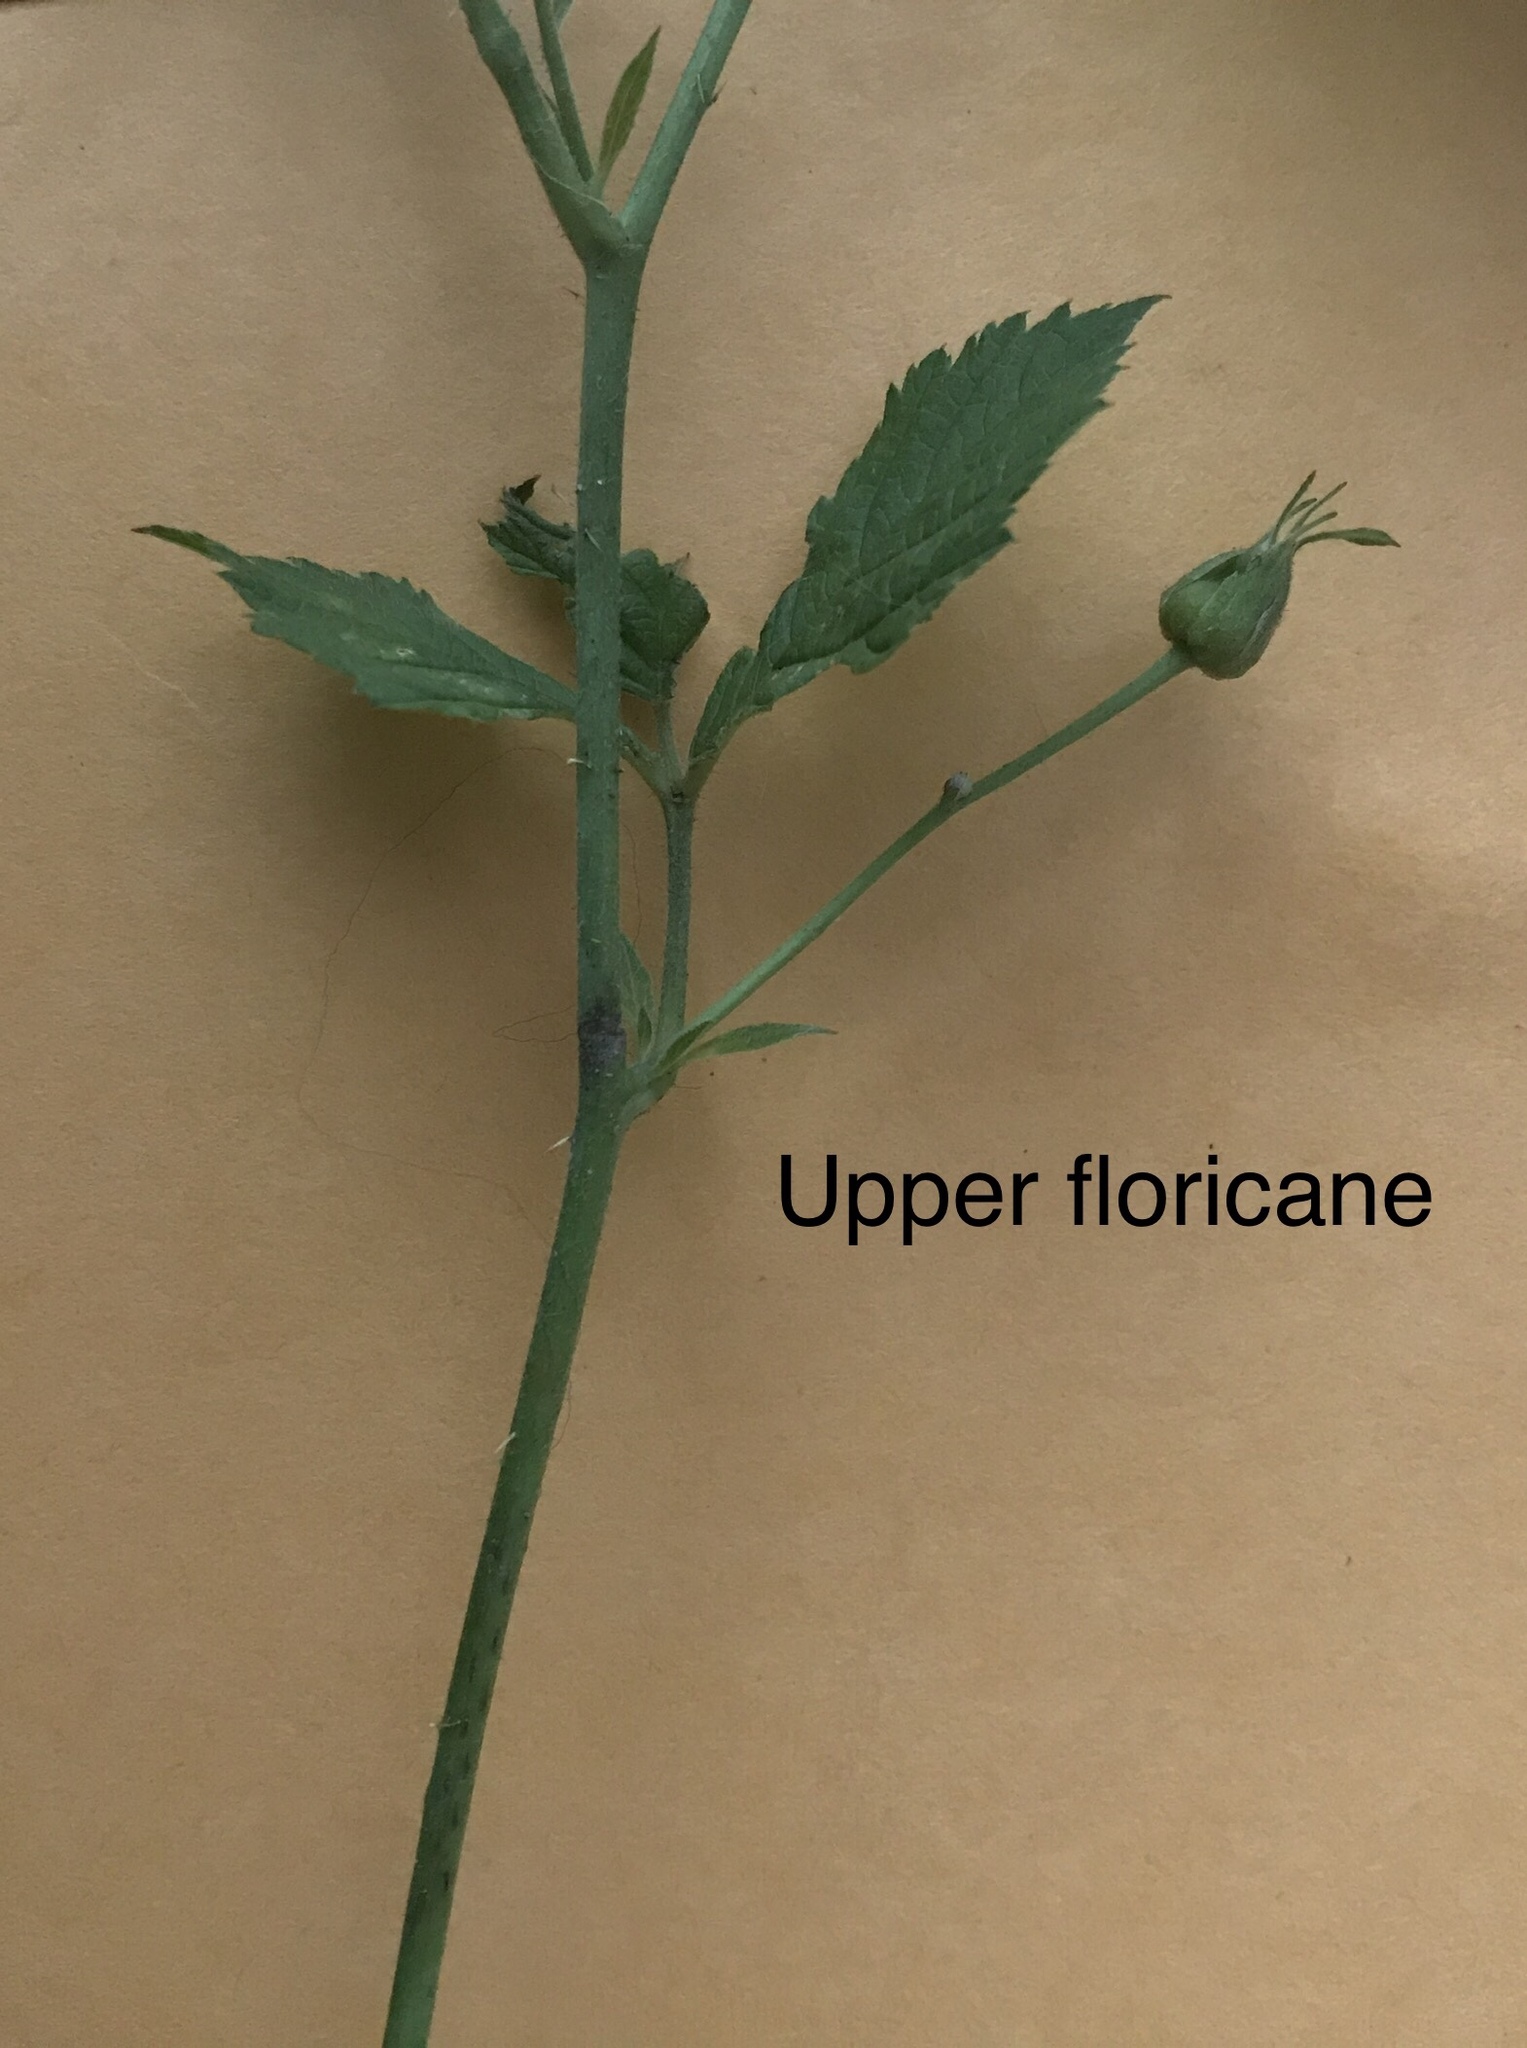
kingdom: Plantae
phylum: Tracheophyta
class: Magnoliopsida
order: Rosales
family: Rosaceae
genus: Rubus
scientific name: Rubus caesius
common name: Dewberry
